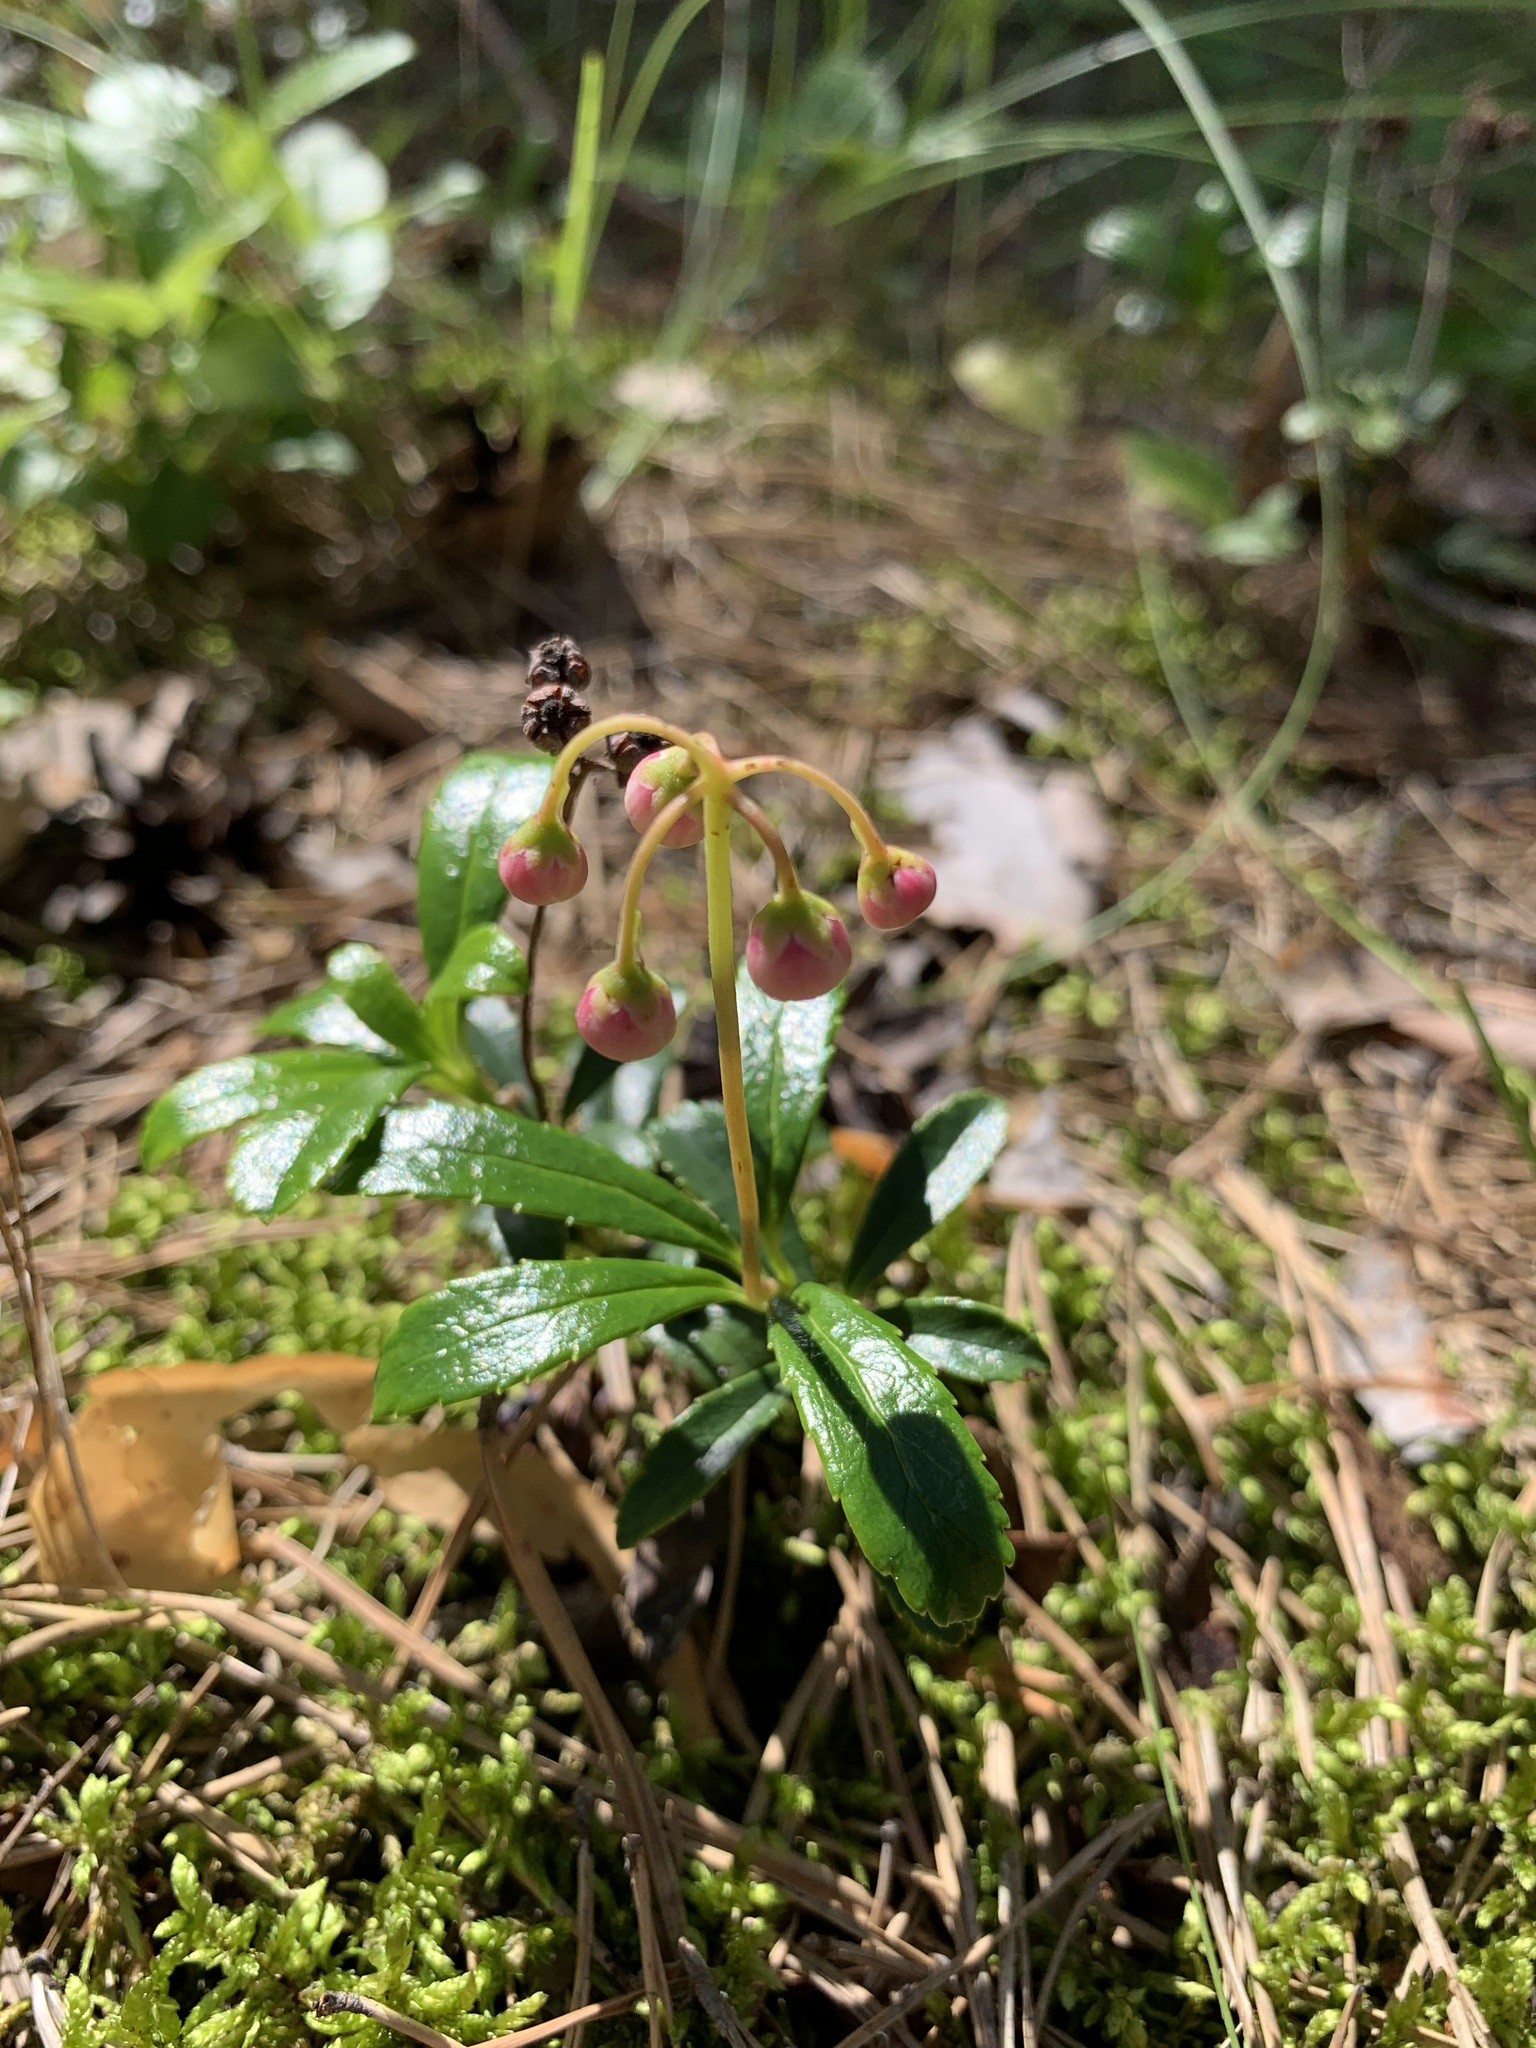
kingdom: Plantae
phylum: Tracheophyta
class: Magnoliopsida
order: Ericales
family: Ericaceae
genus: Chimaphila
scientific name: Chimaphila umbellata
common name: Pipsissewa
